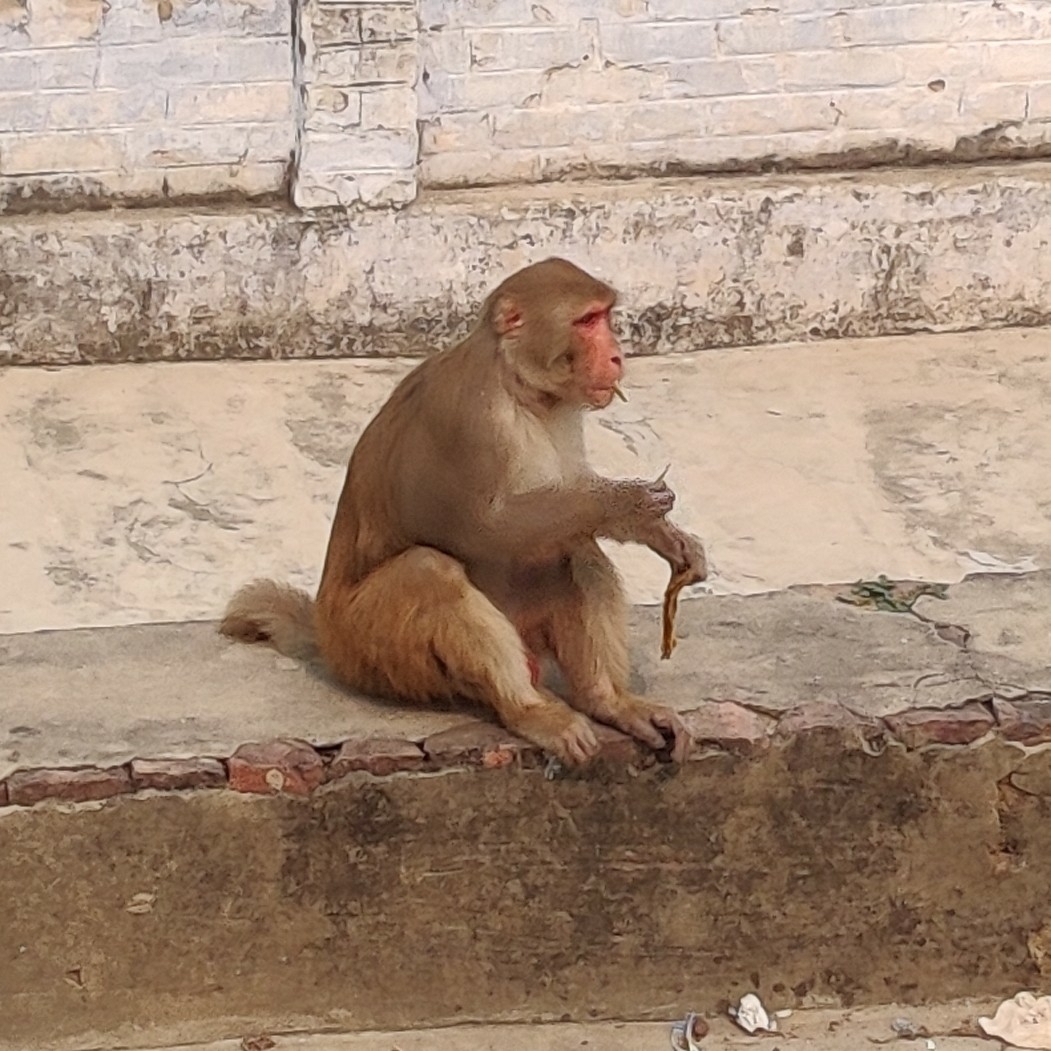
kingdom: Animalia
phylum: Chordata
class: Mammalia
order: Primates
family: Cercopithecidae
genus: Macaca
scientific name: Macaca mulatta
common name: Rhesus monkey
